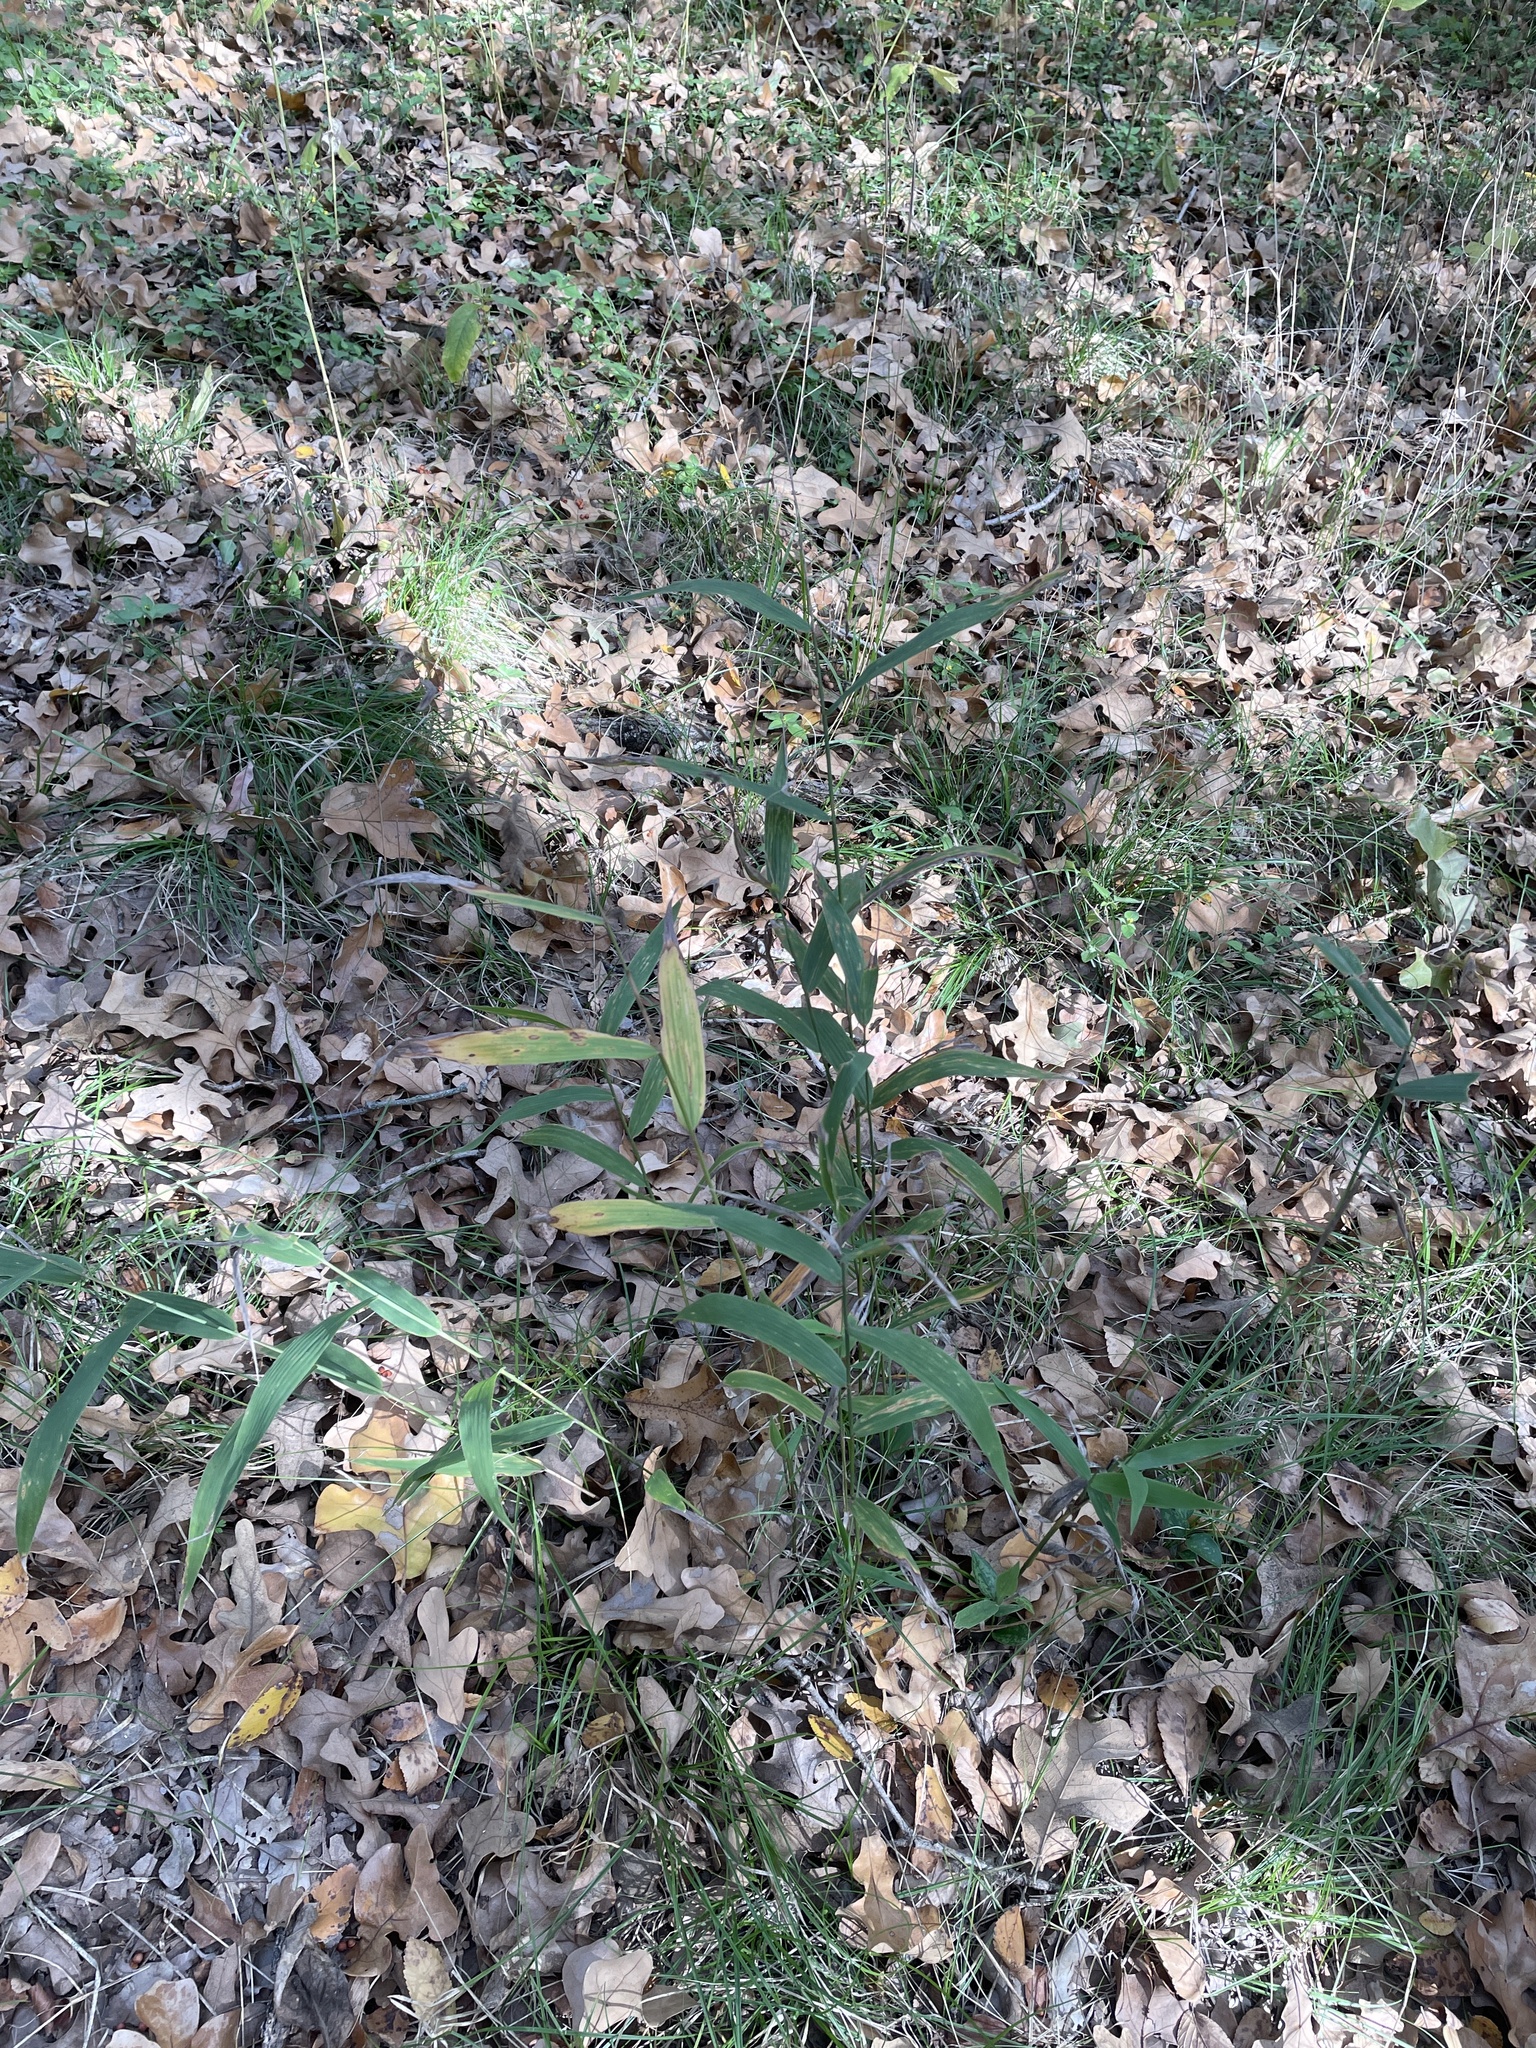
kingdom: Plantae
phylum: Tracheophyta
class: Liliopsida
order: Poales
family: Poaceae
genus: Chasmanthium
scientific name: Chasmanthium latifolium
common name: Broad-leaved chasmanthium
